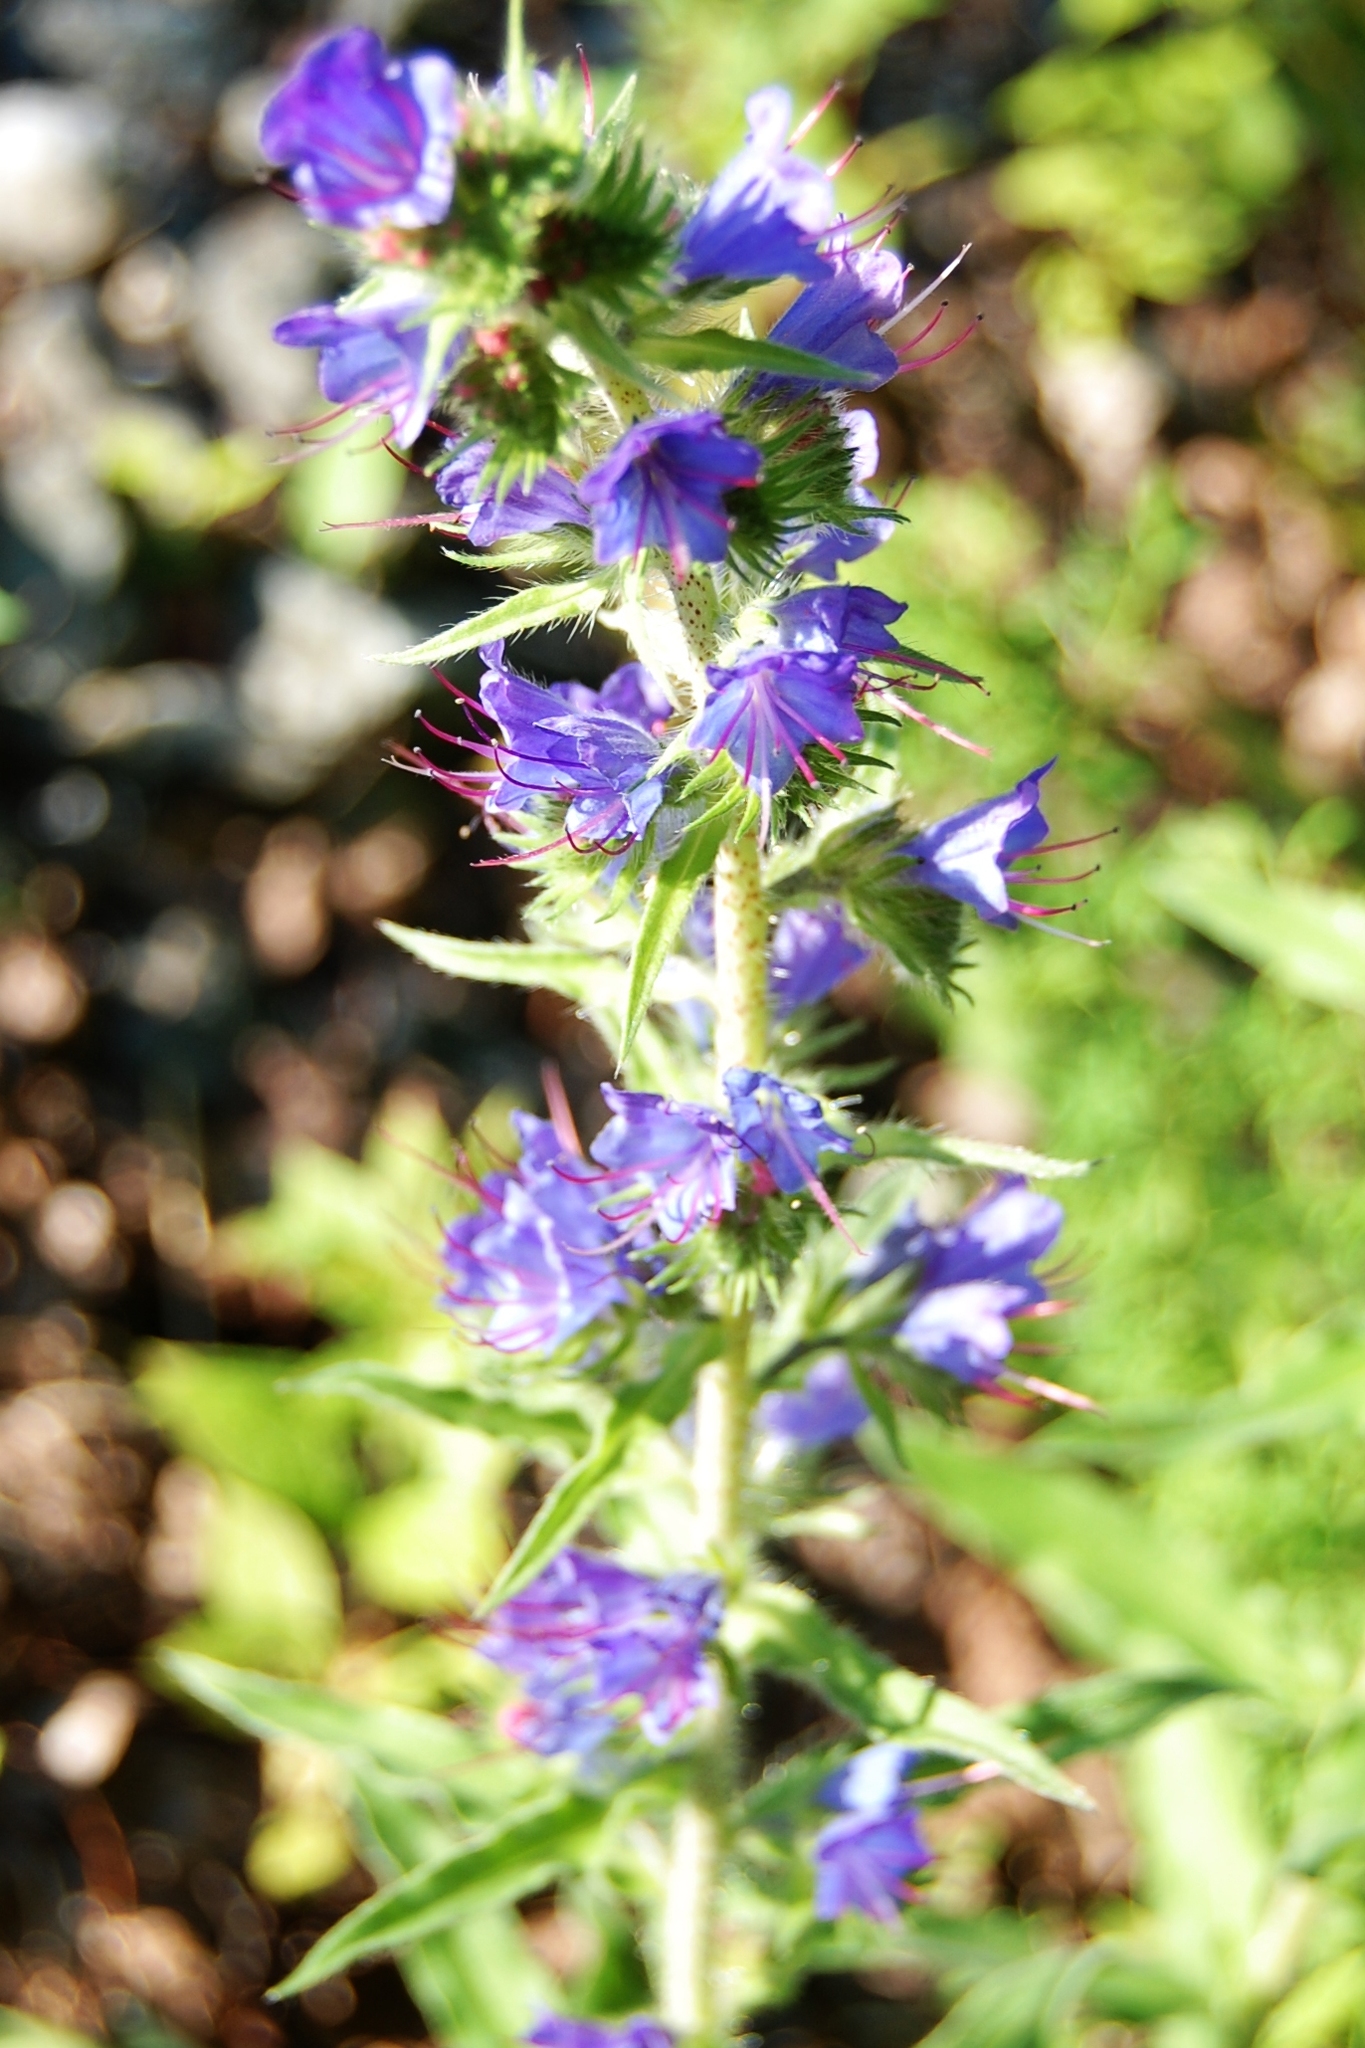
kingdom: Plantae
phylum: Tracheophyta
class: Magnoliopsida
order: Boraginales
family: Boraginaceae
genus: Echium
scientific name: Echium vulgare
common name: Common viper's bugloss
